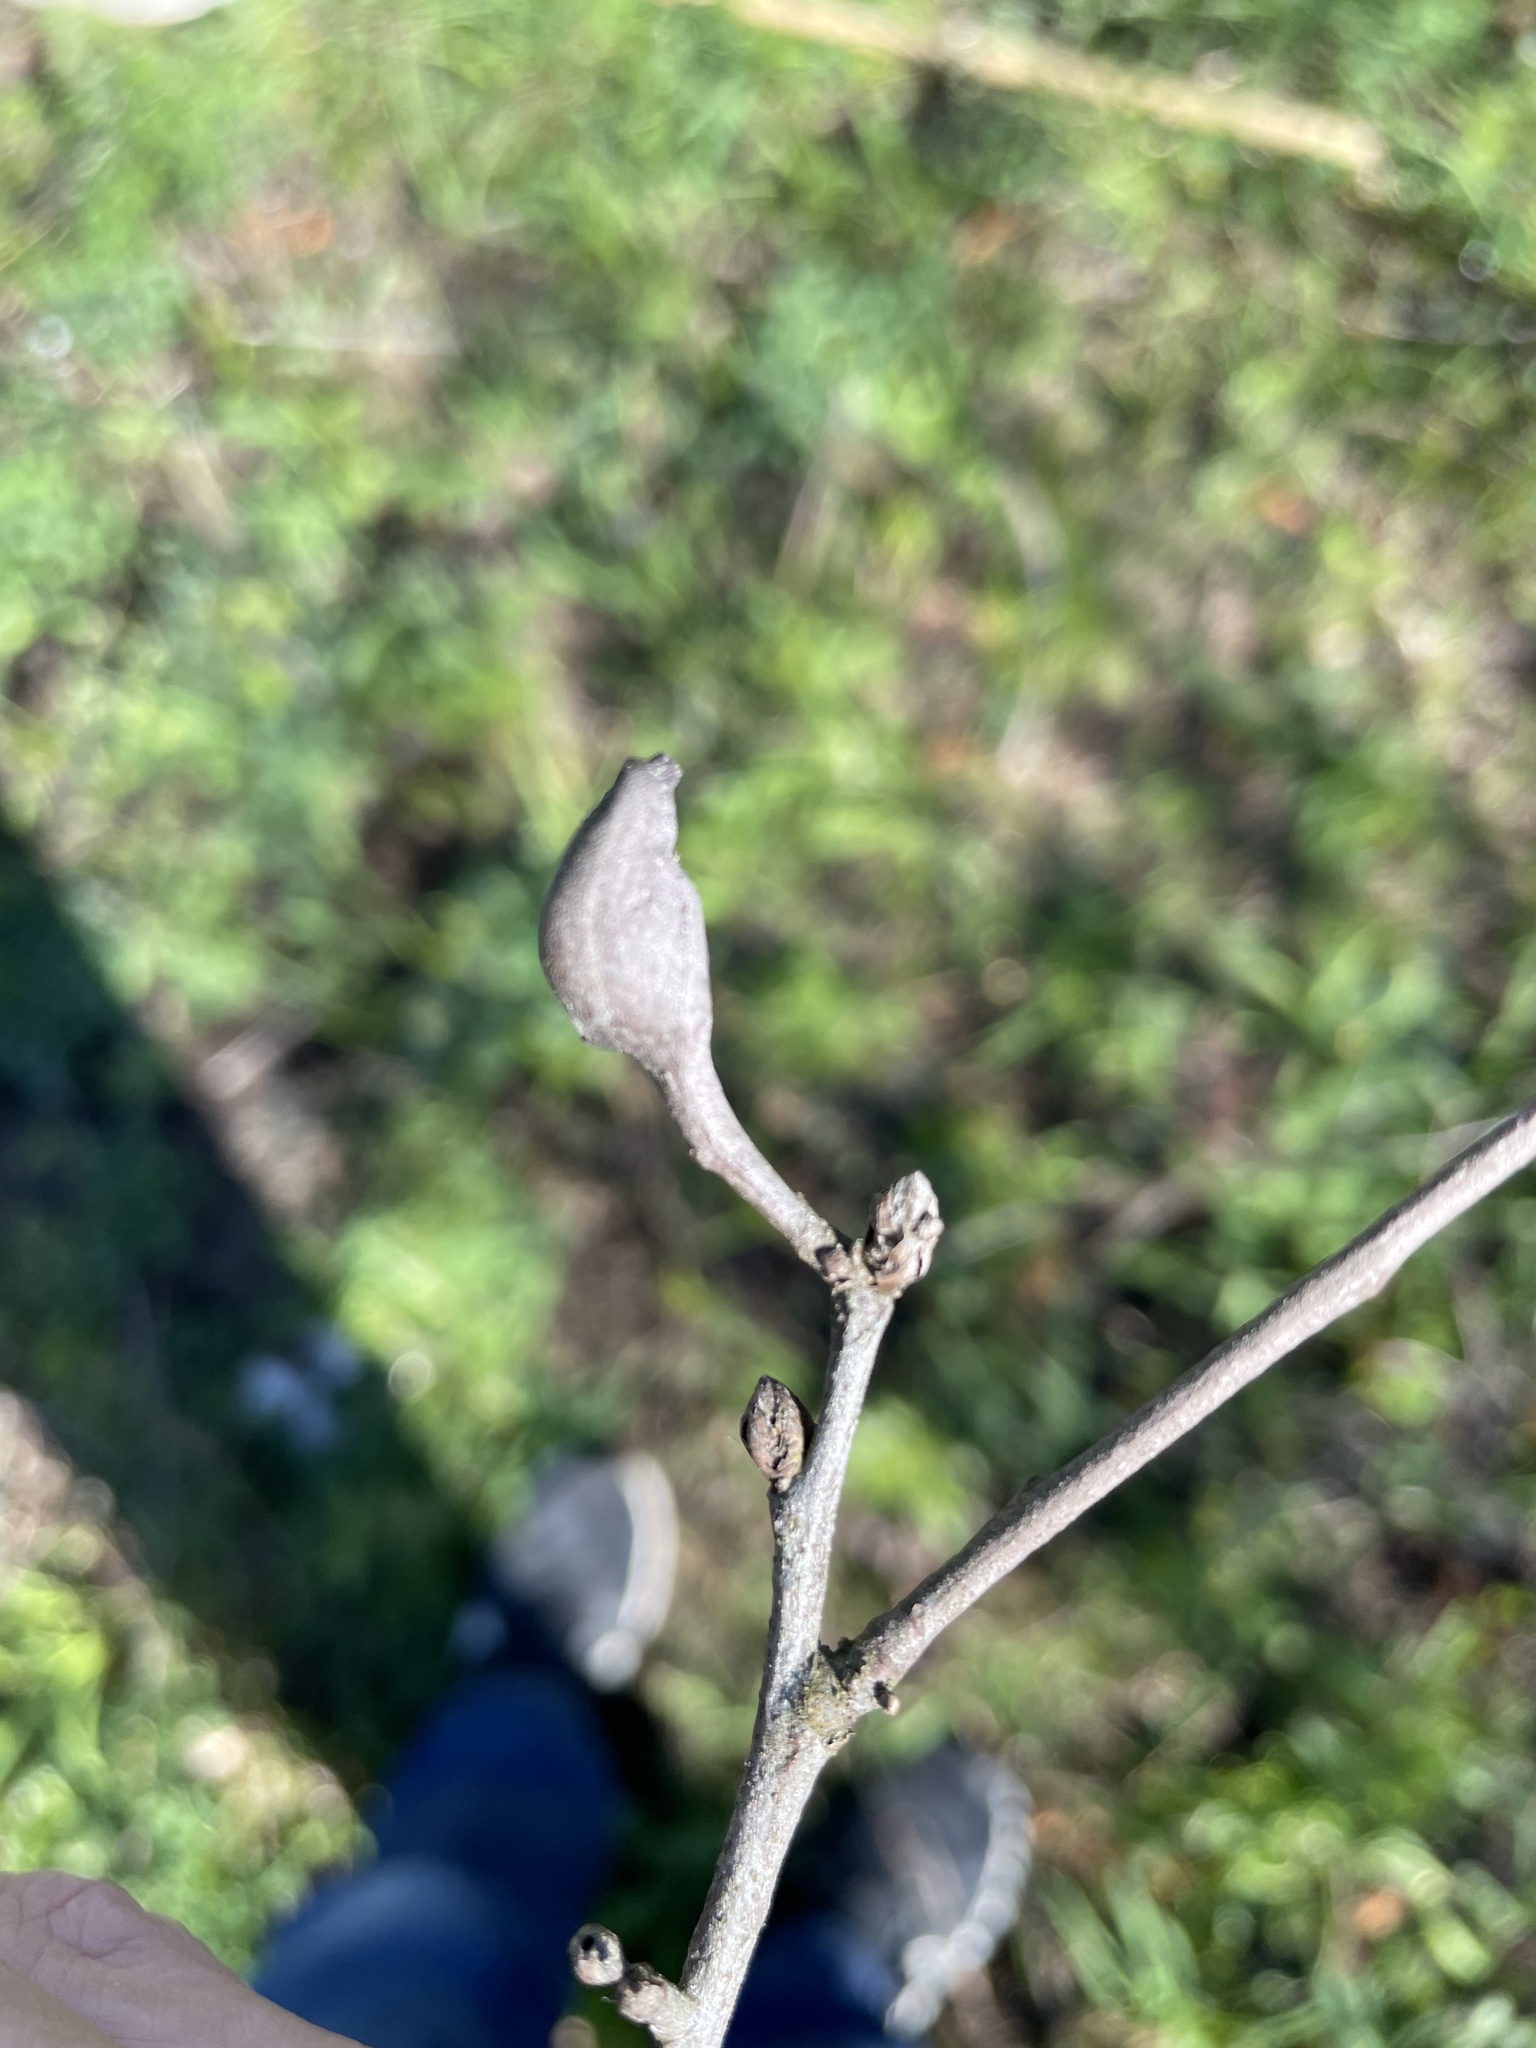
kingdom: Animalia
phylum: Arthropoda
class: Insecta
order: Hymenoptera
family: Cynipidae
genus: Zapatella
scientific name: Zapatella quercusphellos
